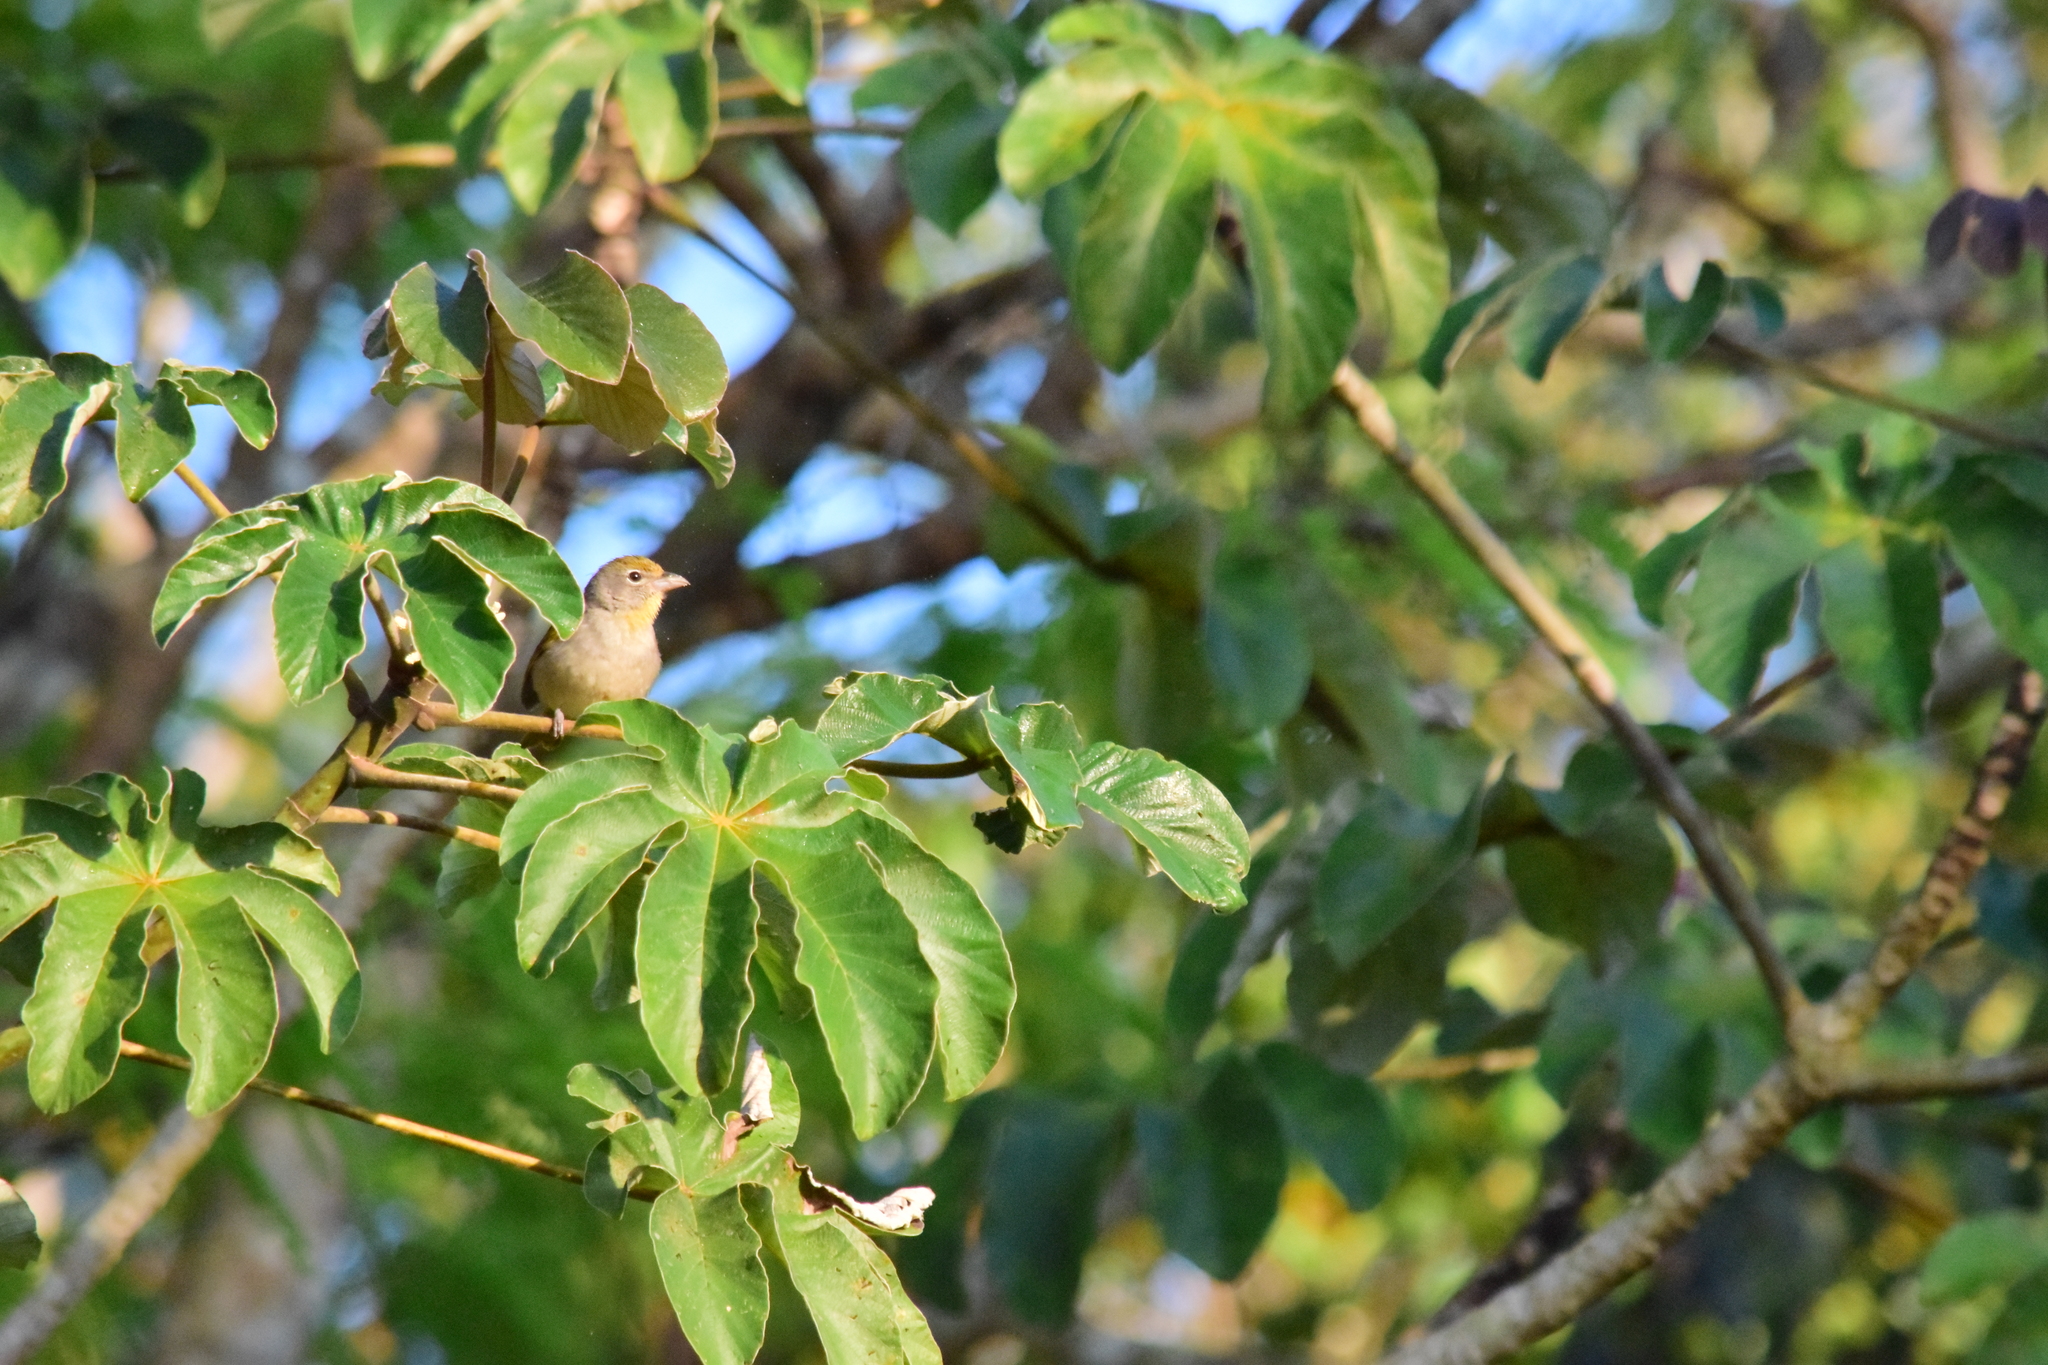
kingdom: Animalia
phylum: Chordata
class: Aves
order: Passeriformes
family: Cardinalidae
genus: Piranga
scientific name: Piranga roseogularis
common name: Rose-throated tanager
